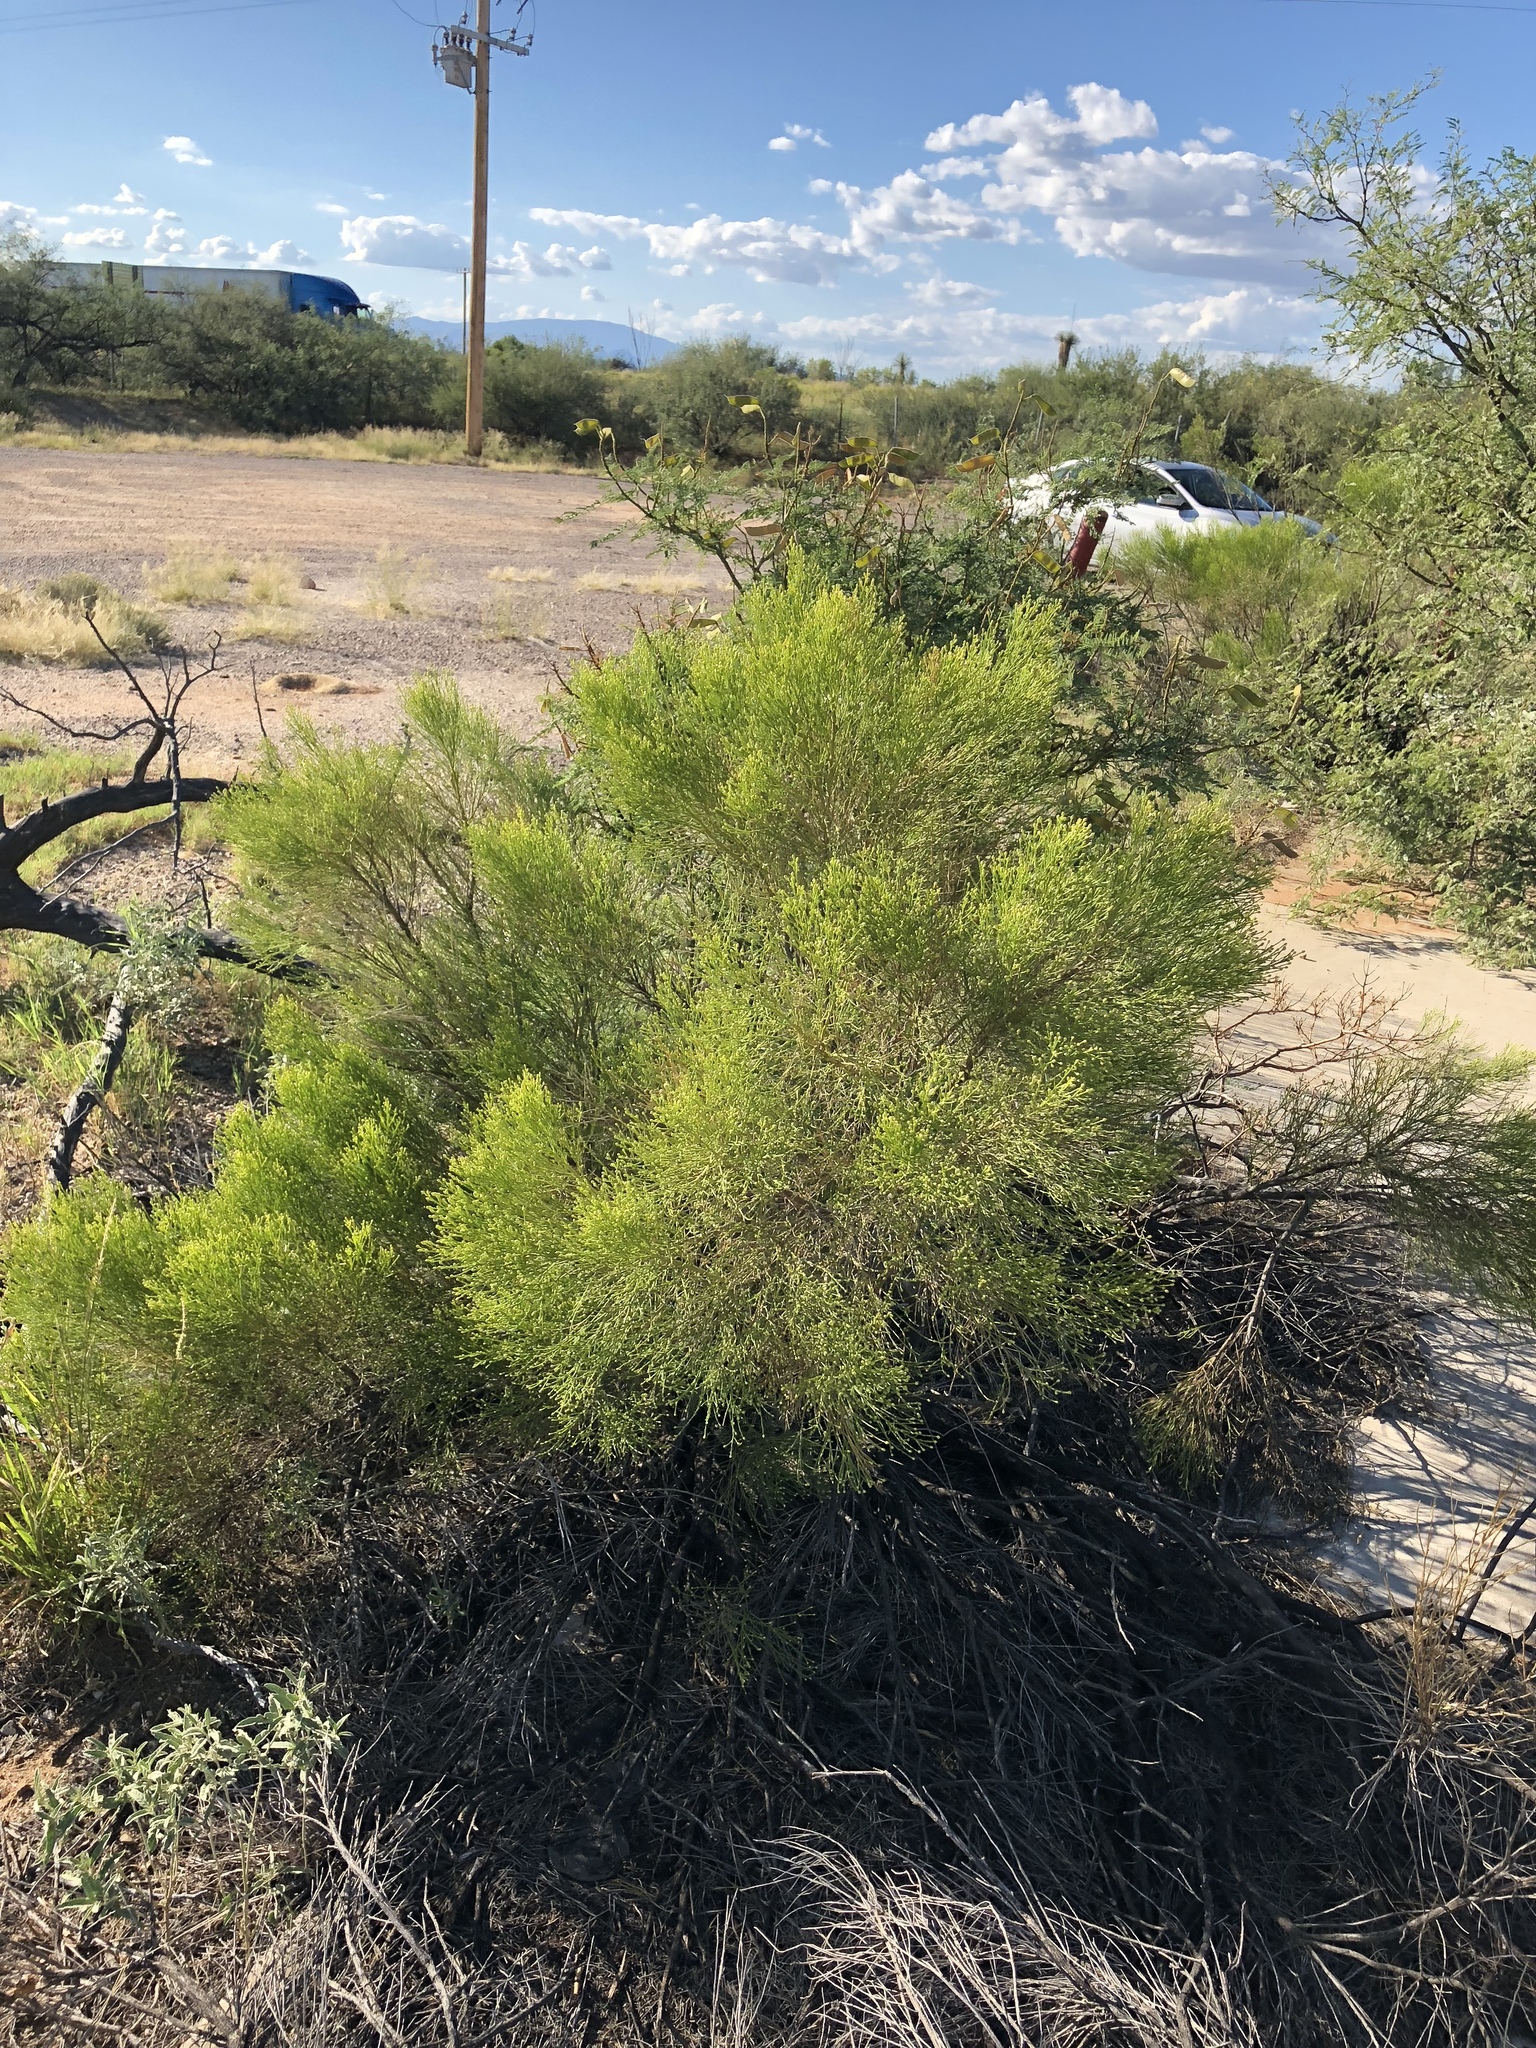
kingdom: Plantae
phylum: Tracheophyta
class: Magnoliopsida
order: Asterales
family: Asteraceae
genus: Baccharis
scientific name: Baccharis sarothroides
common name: Desert-broom
